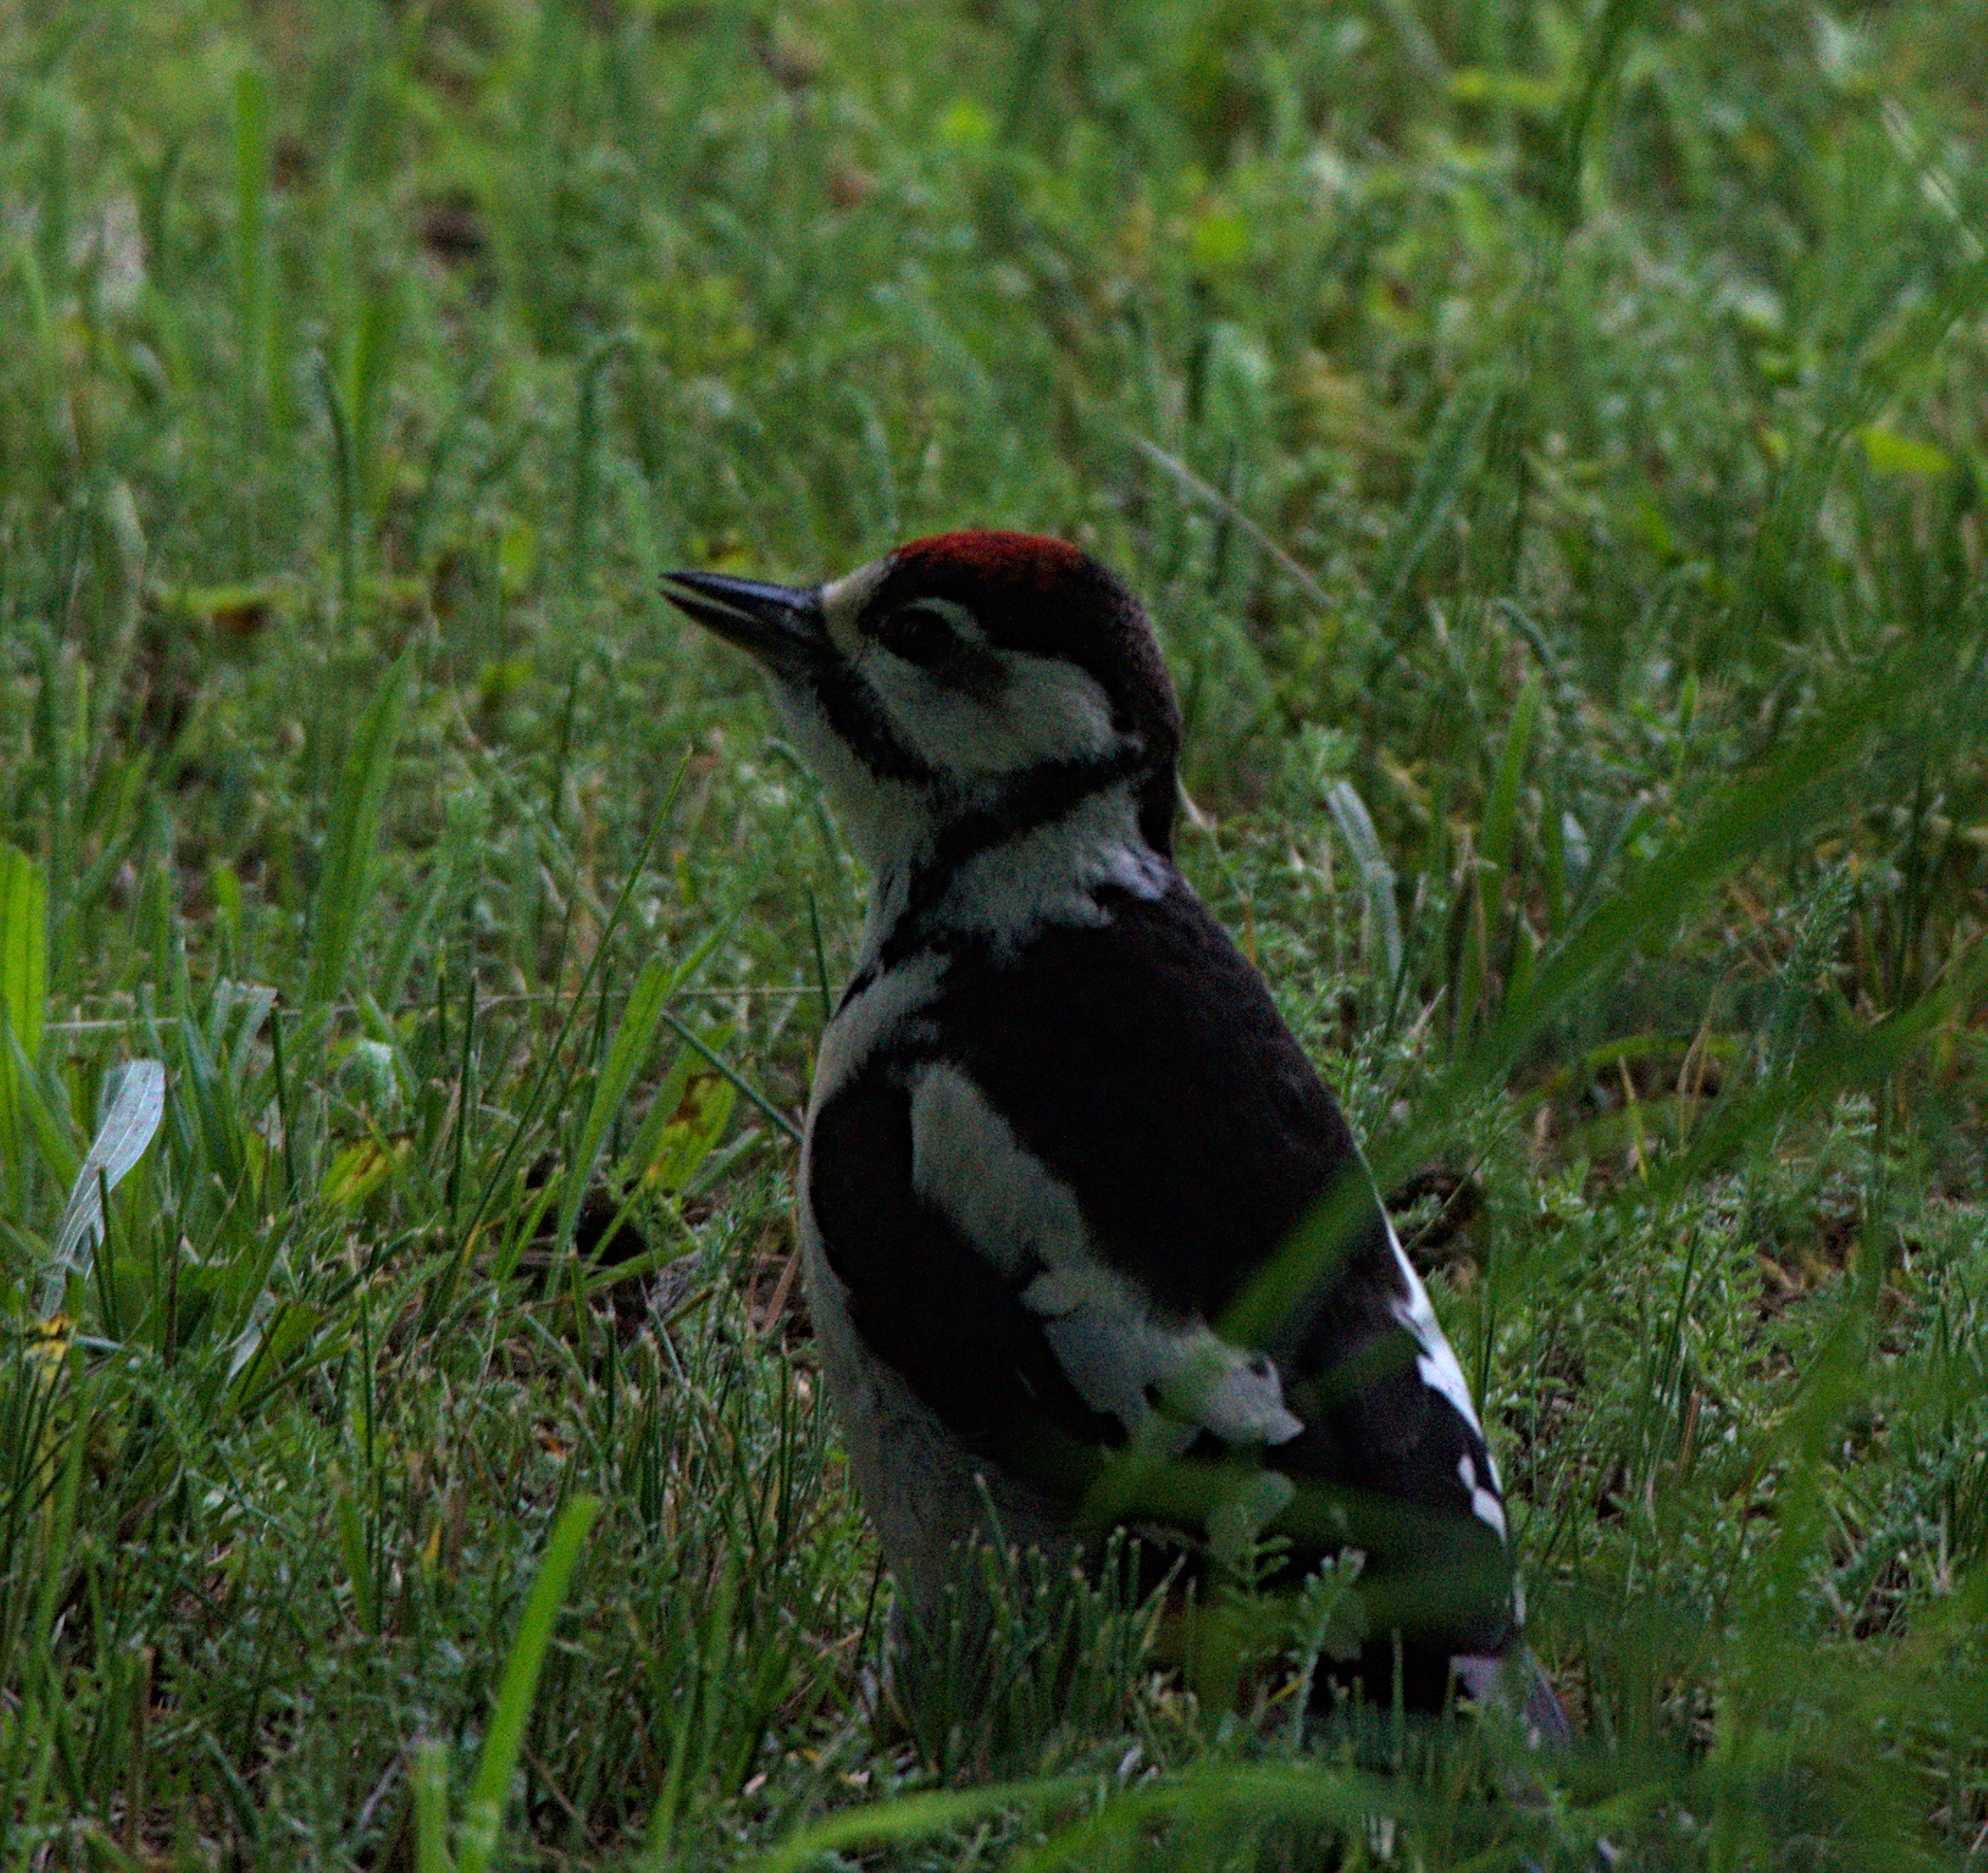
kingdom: Animalia
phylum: Chordata
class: Aves
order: Piciformes
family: Picidae
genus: Dendrocopos
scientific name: Dendrocopos major
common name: Great spotted woodpecker
